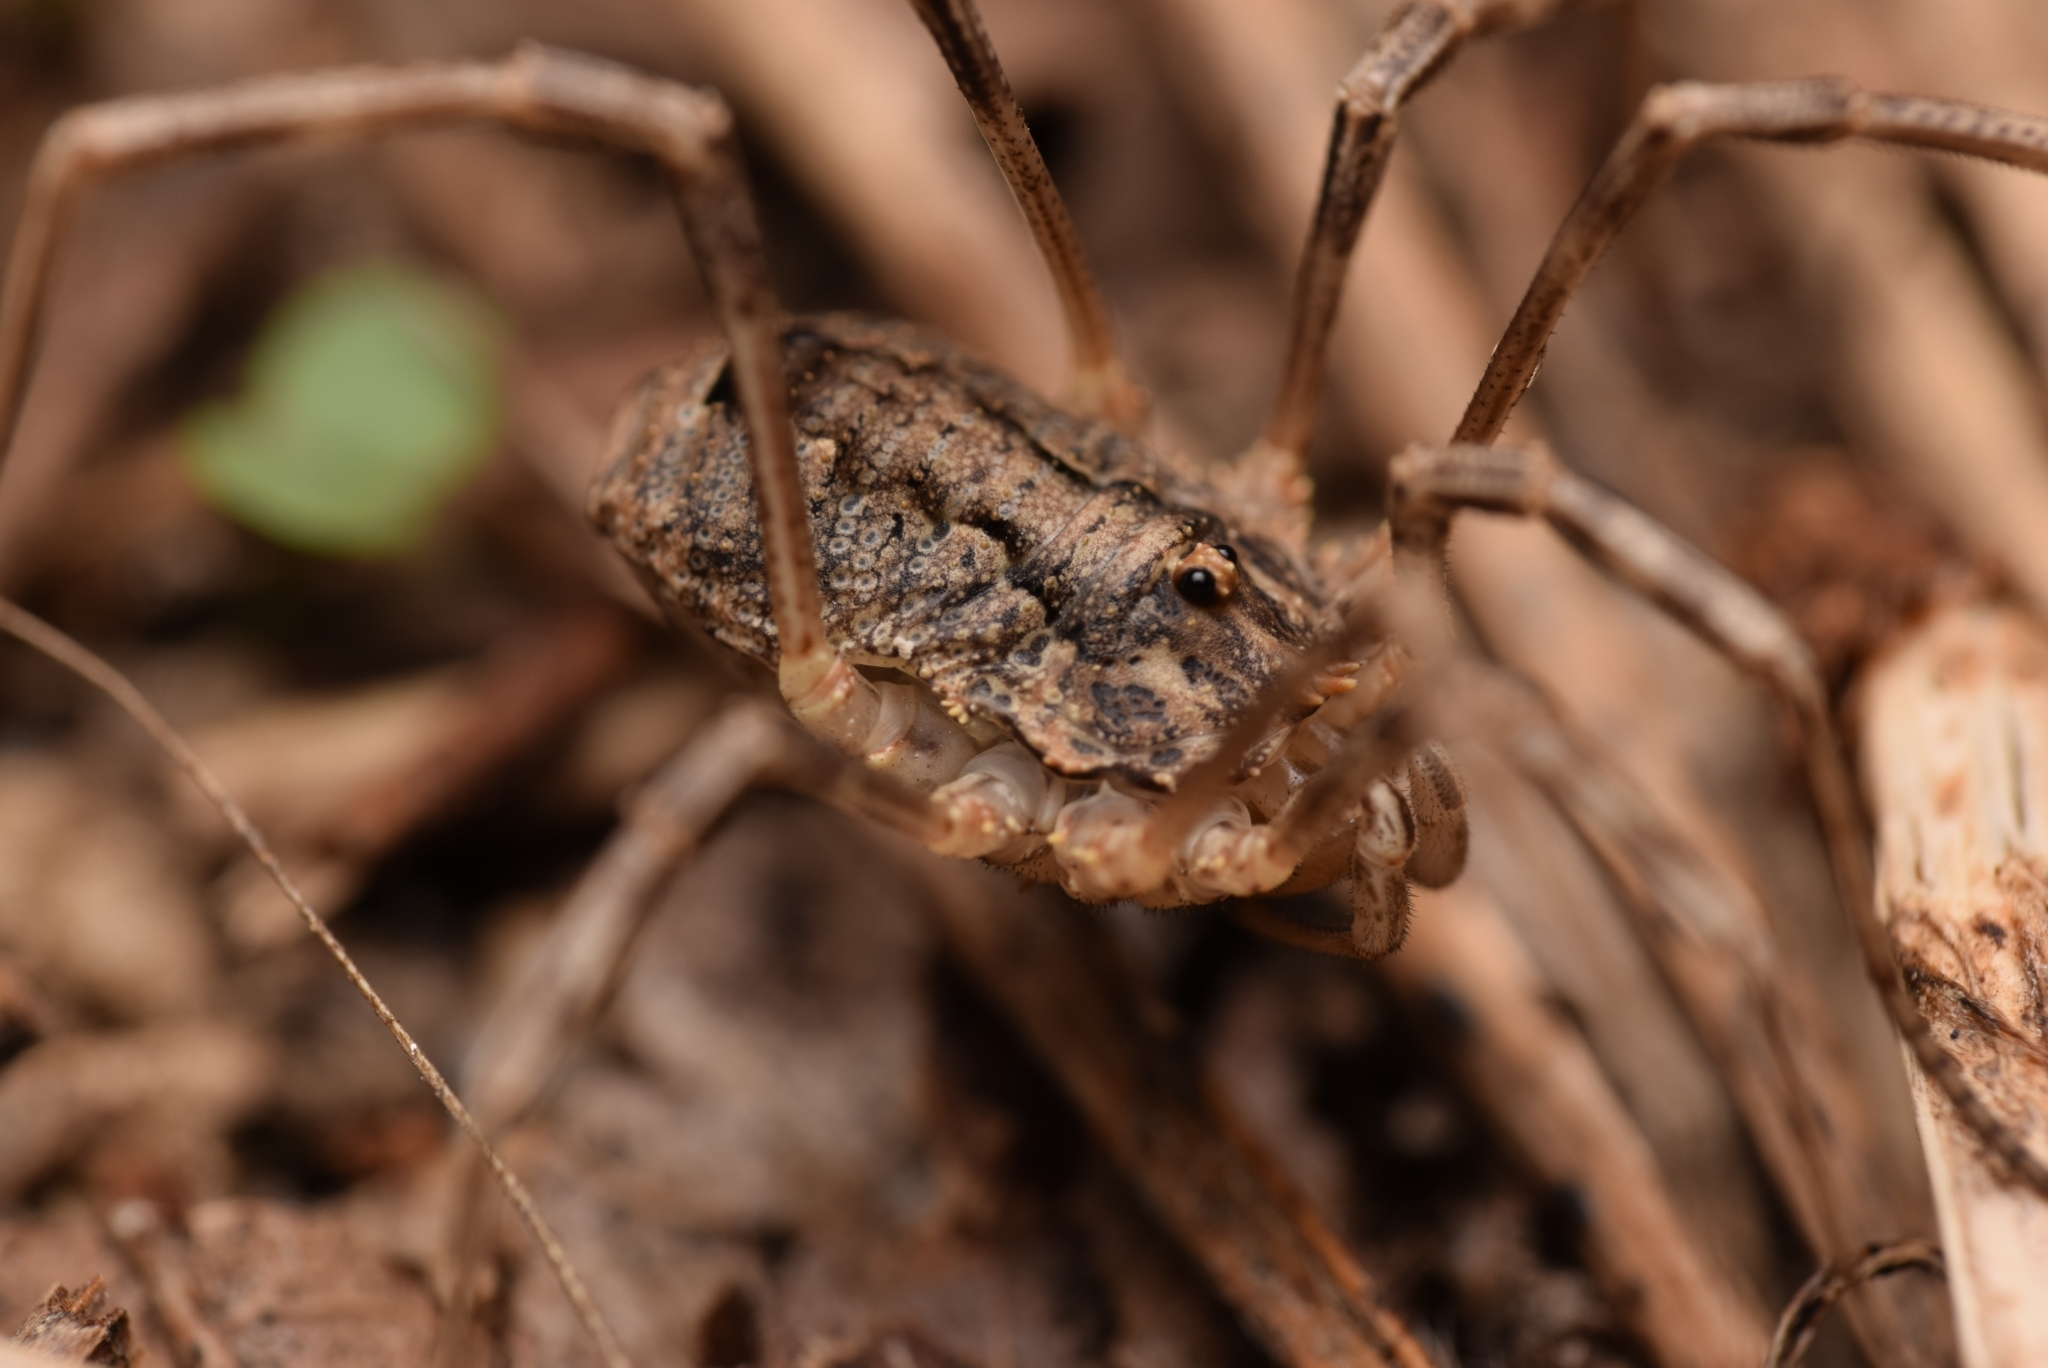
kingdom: Animalia
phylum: Arthropoda
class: Arachnida
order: Opiliones
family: Phalangiidae
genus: Odiellus
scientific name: Odiellus spinosus
